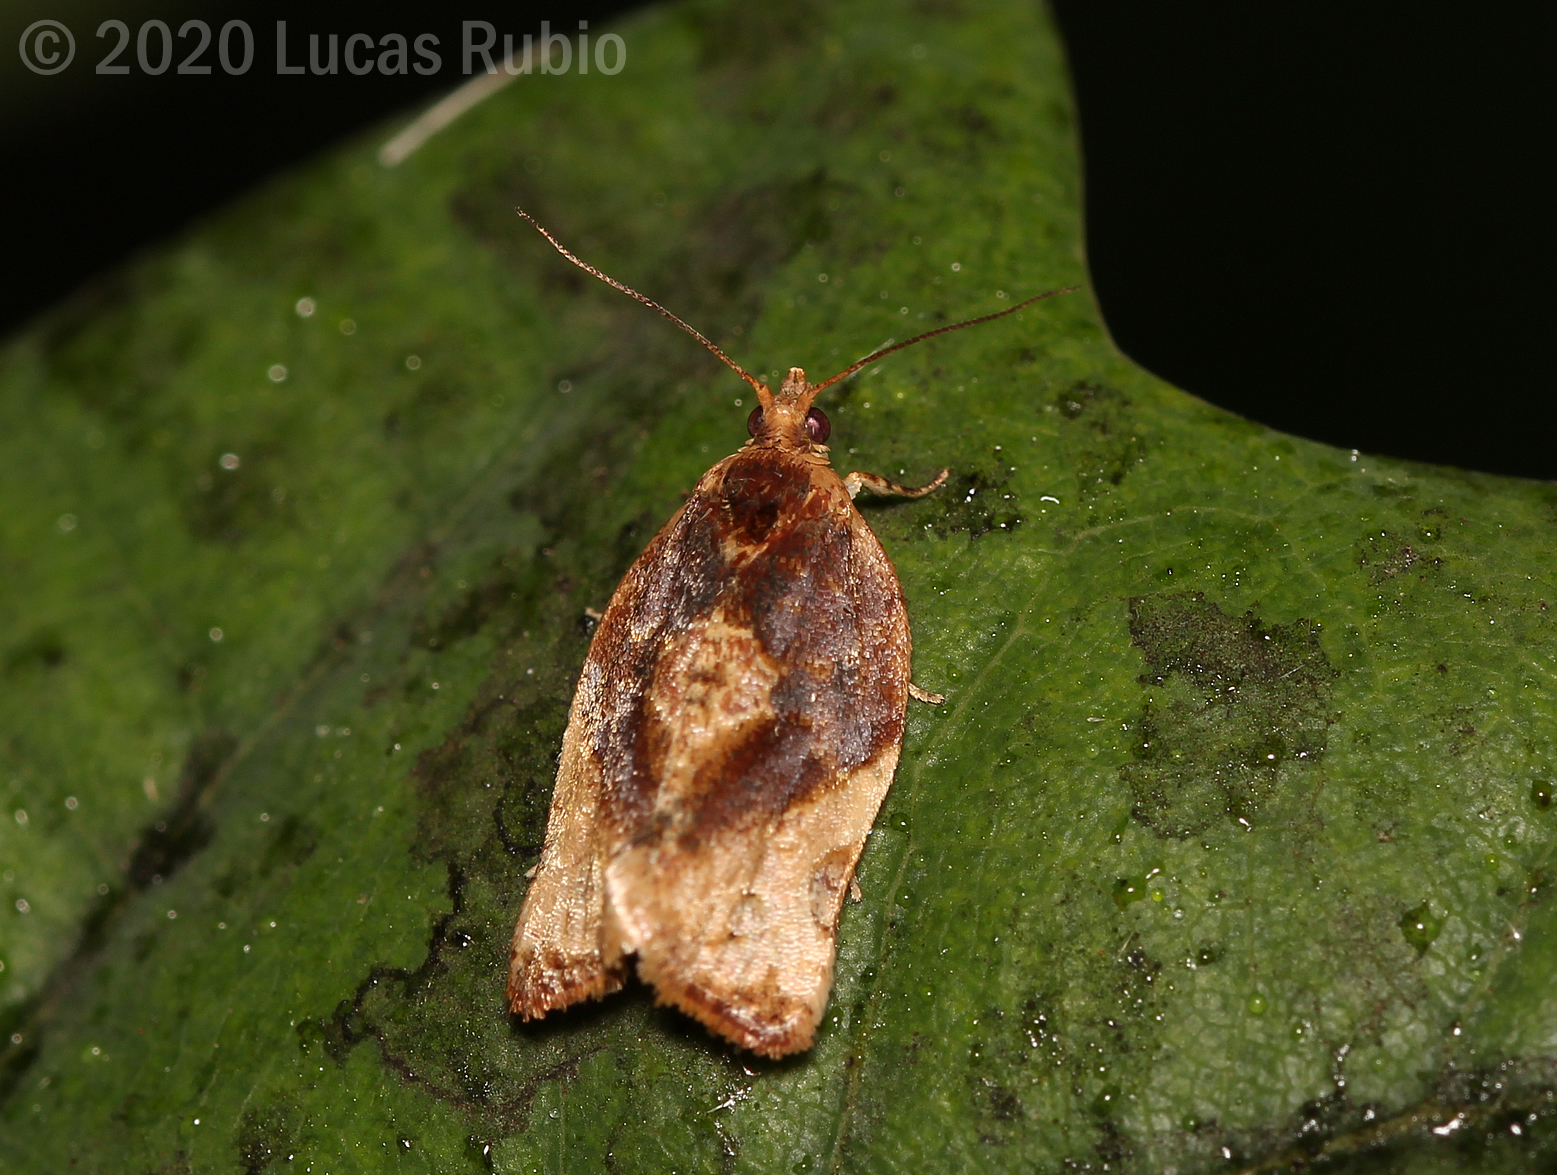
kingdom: Animalia
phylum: Arthropoda
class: Insecta
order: Lepidoptera
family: Tortricidae
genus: Argyrotaenia
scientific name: Argyrotaenia sphaleropa
